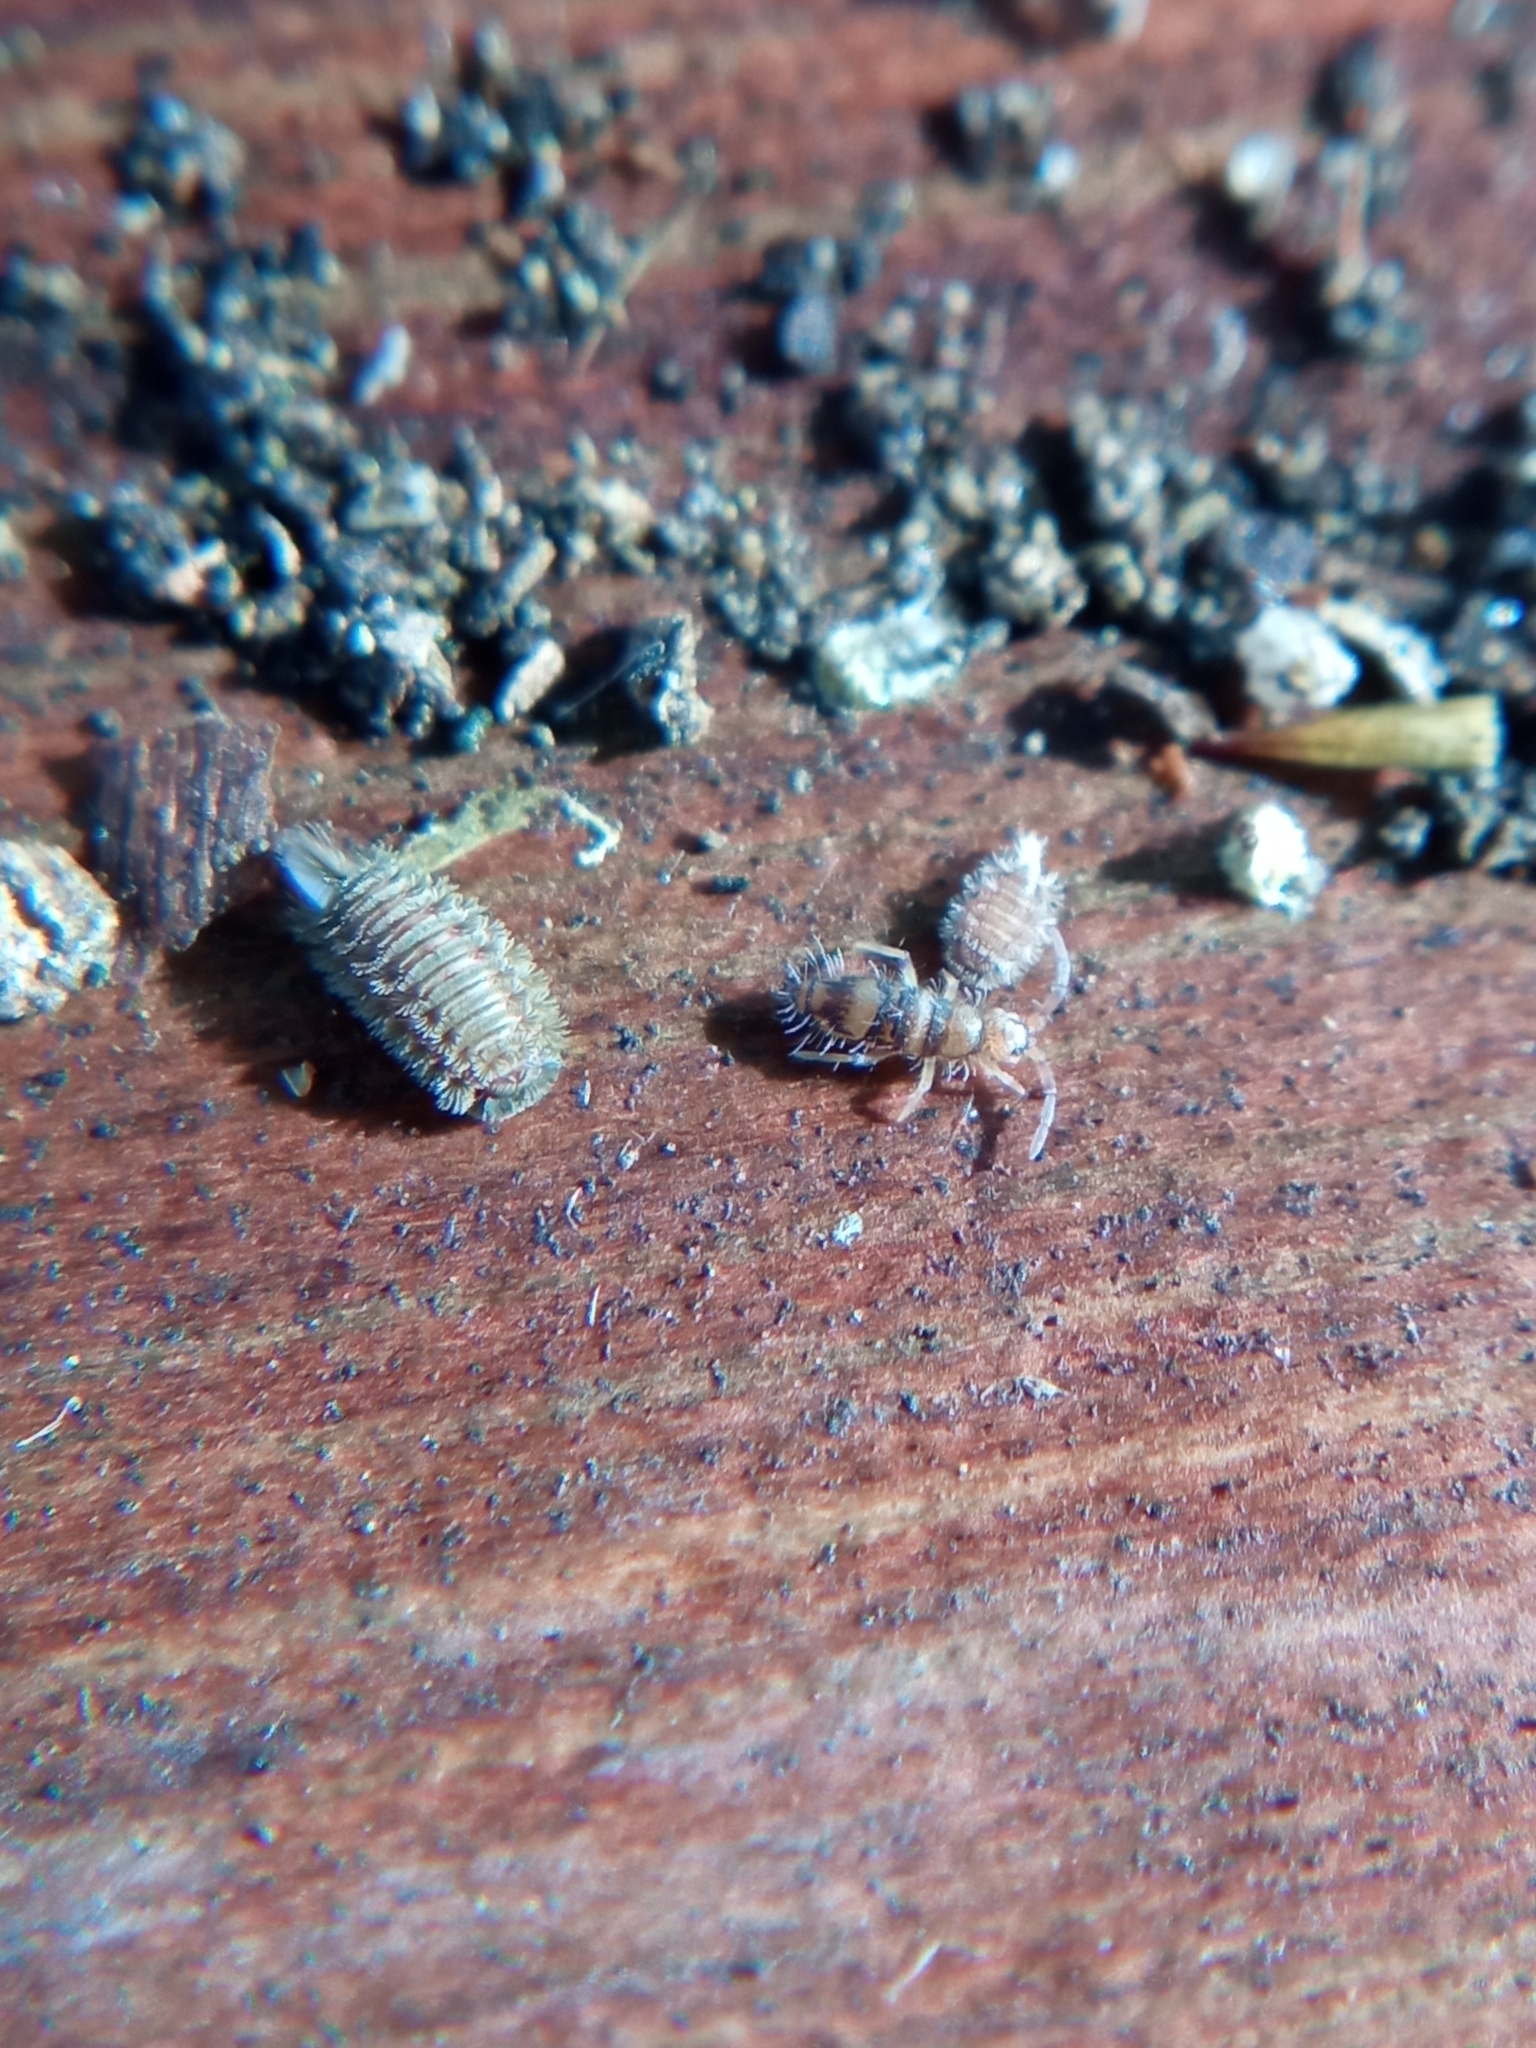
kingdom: Animalia
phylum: Arthropoda
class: Diplopoda
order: Polyxenida
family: Polyxenidae
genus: Polyxenus
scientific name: Polyxenus lagurus
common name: Bristly millipede
